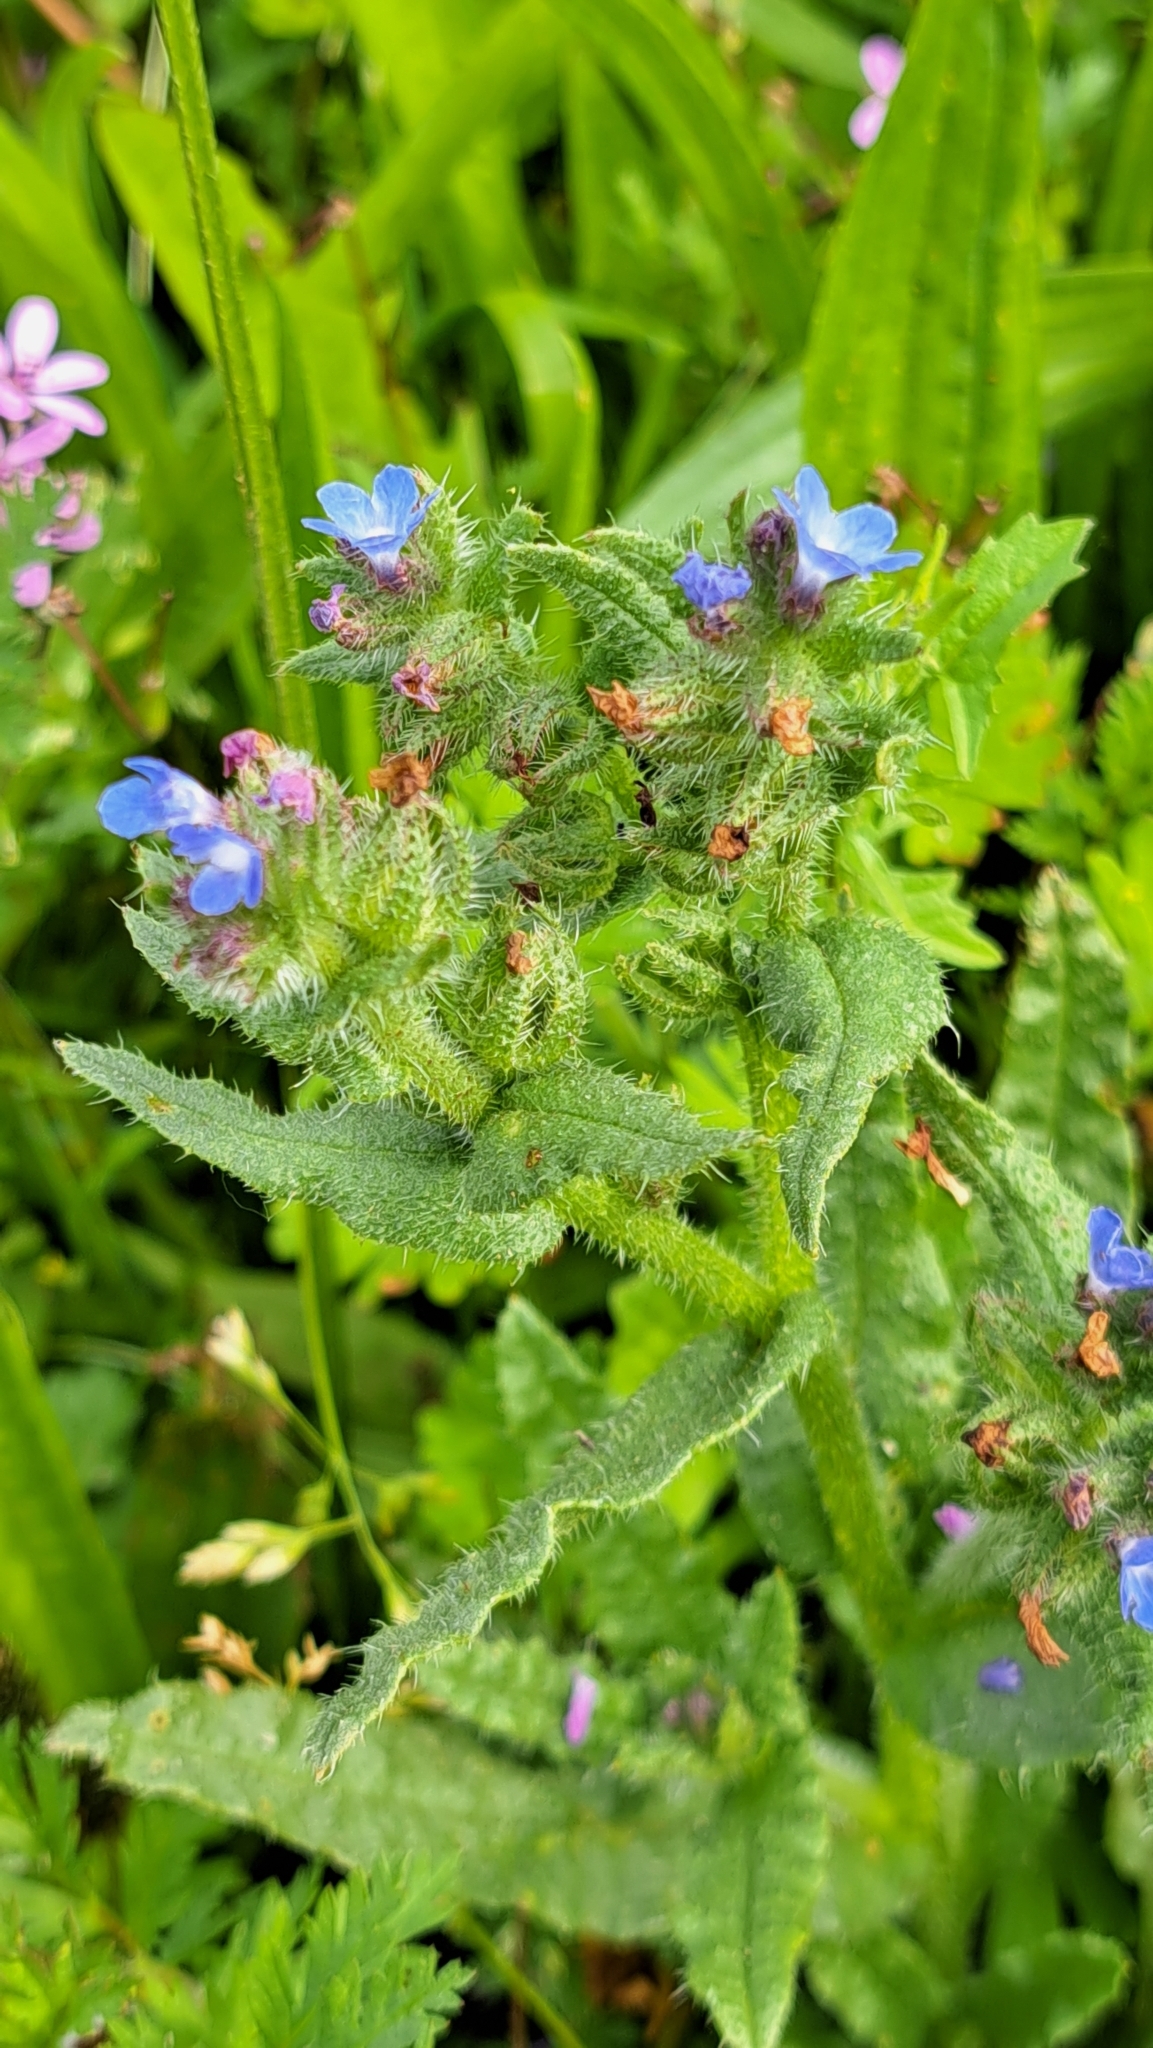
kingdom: Plantae
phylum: Tracheophyta
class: Magnoliopsida
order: Boraginales
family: Boraginaceae
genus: Lycopsis
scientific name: Lycopsis arvensis
